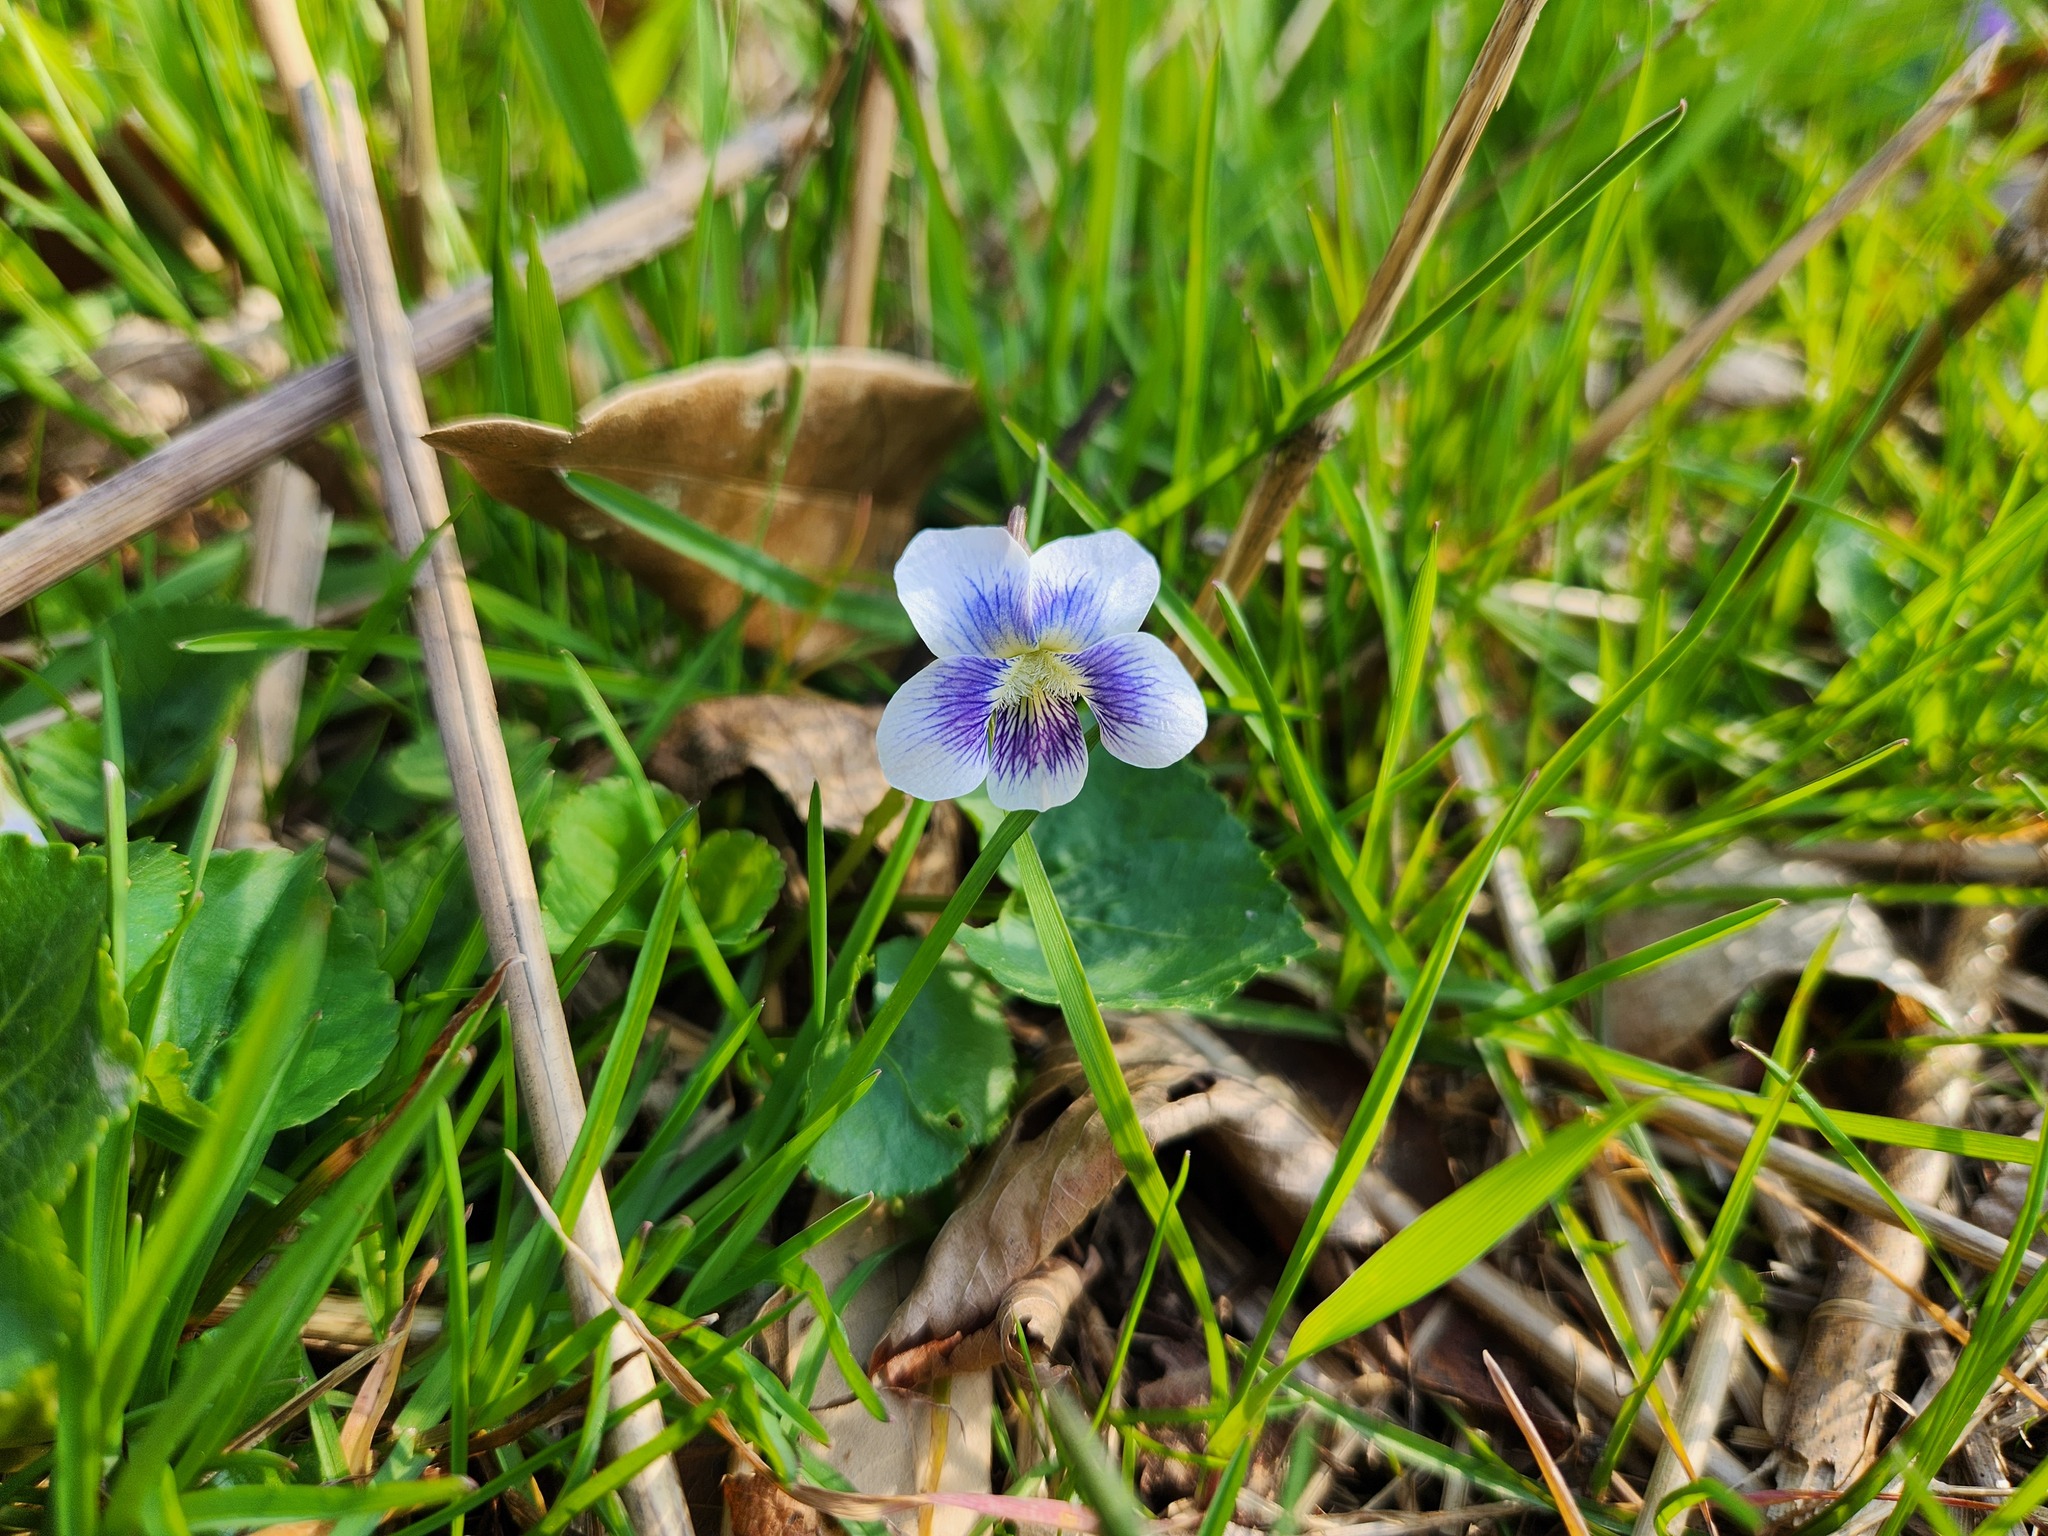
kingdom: Plantae
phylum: Tracheophyta
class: Magnoliopsida
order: Malpighiales
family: Violaceae
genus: Viola
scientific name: Viola sororia
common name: Dooryard violet
